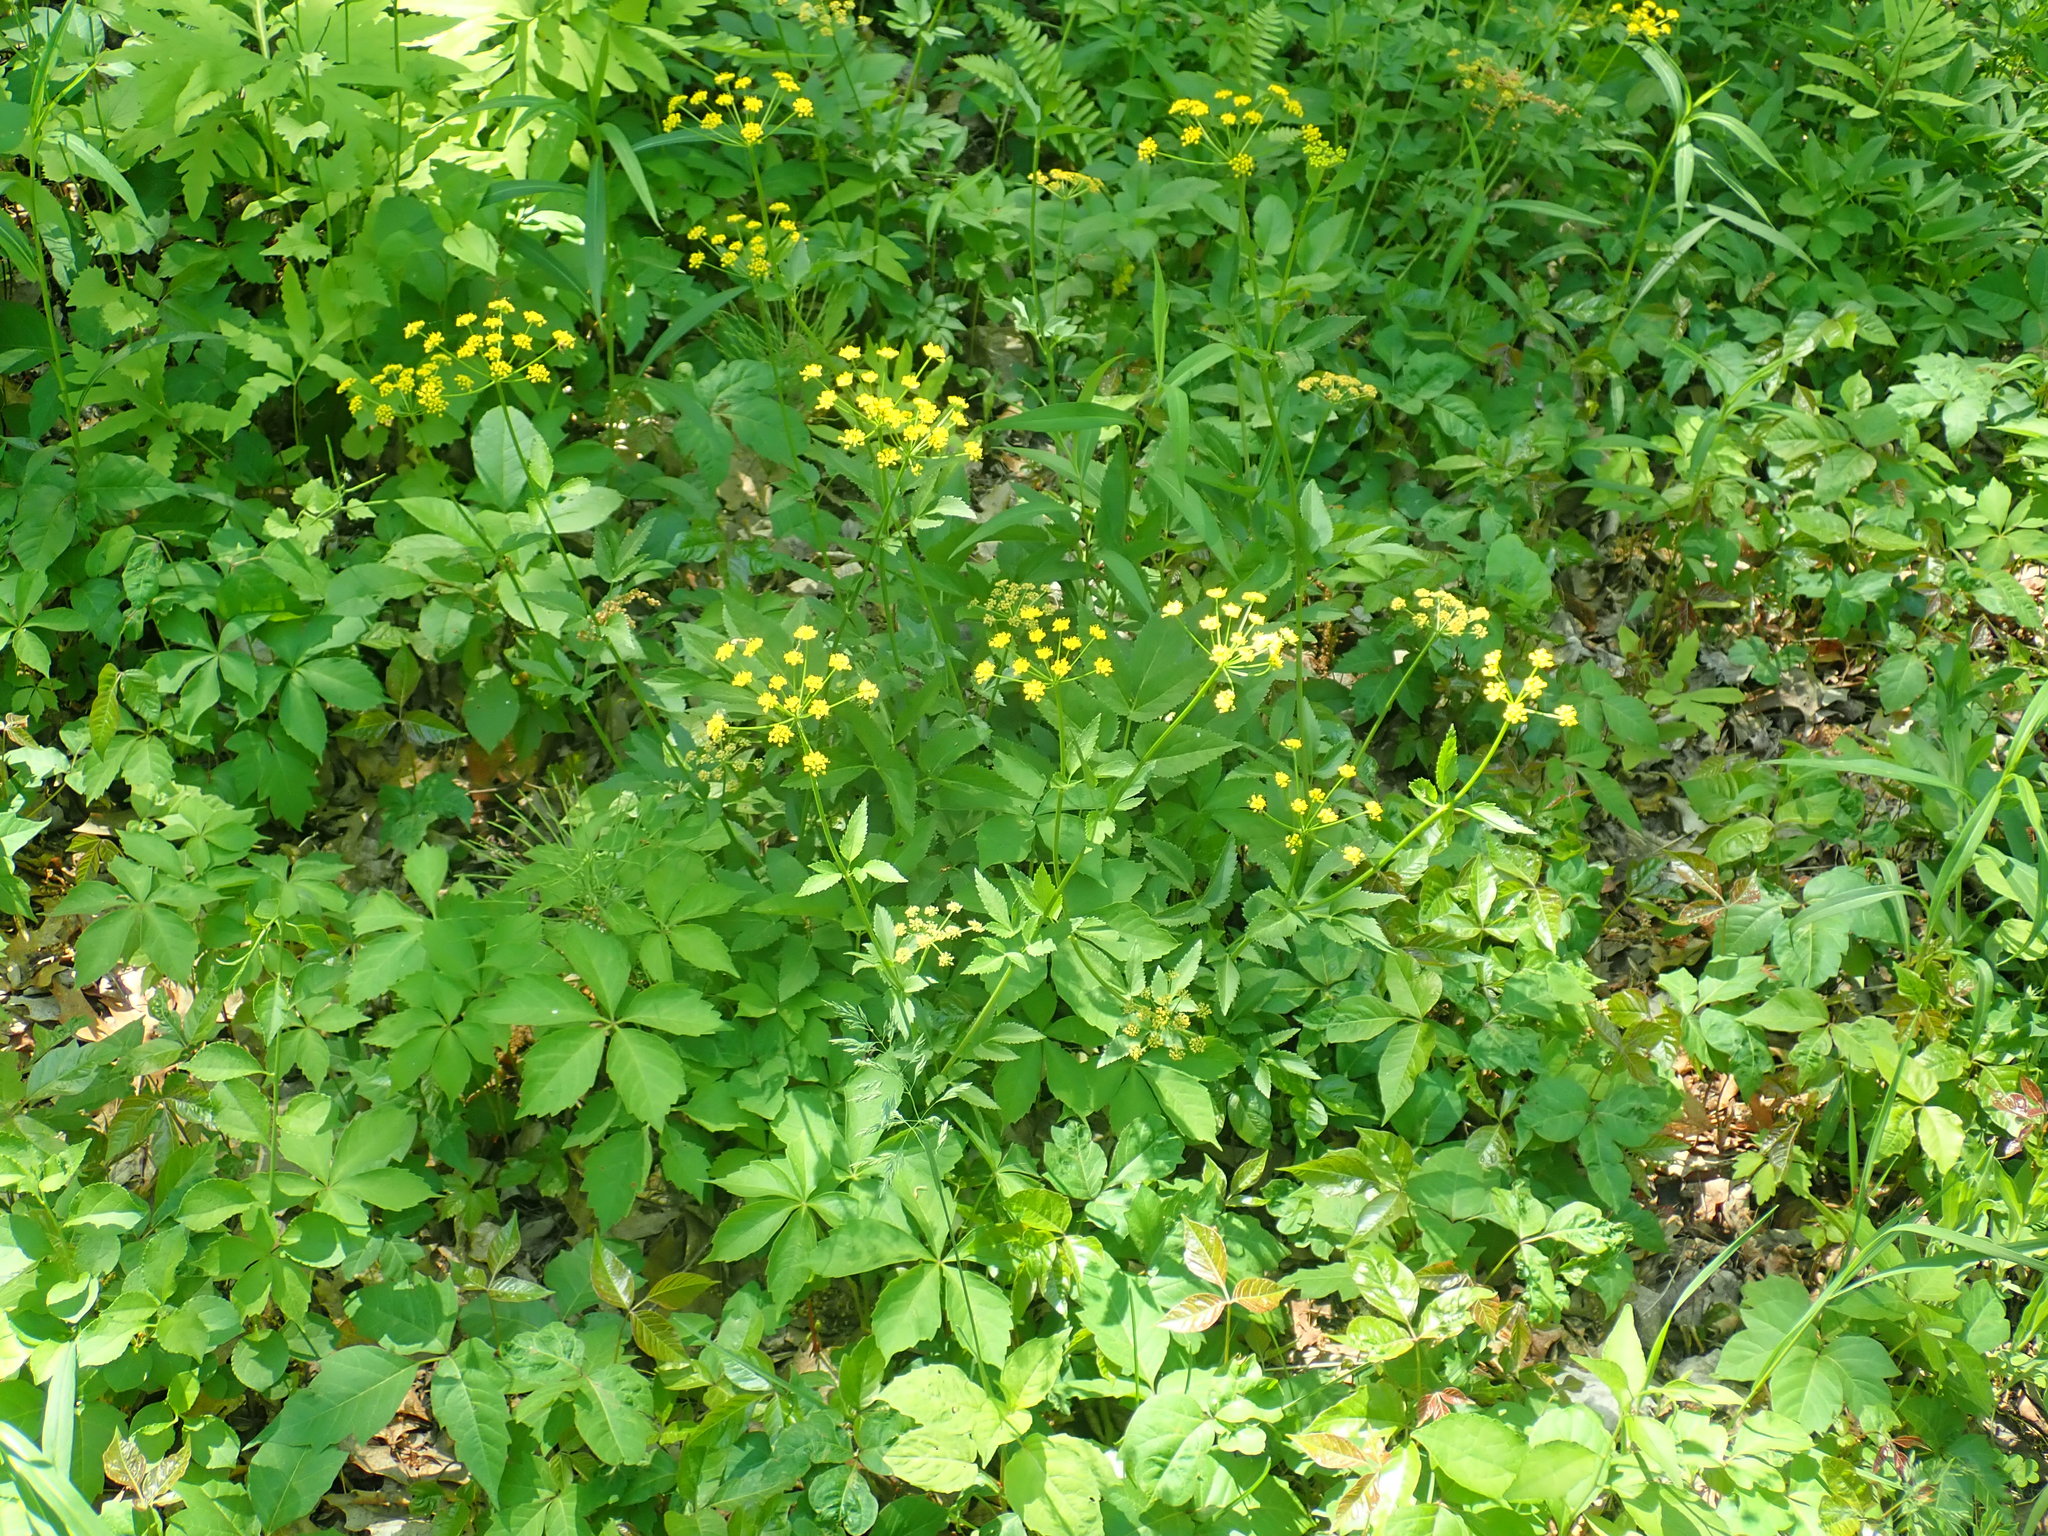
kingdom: Plantae
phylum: Tracheophyta
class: Magnoliopsida
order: Apiales
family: Apiaceae
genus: Zizia
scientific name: Zizia aurea
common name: Golden alexanders
